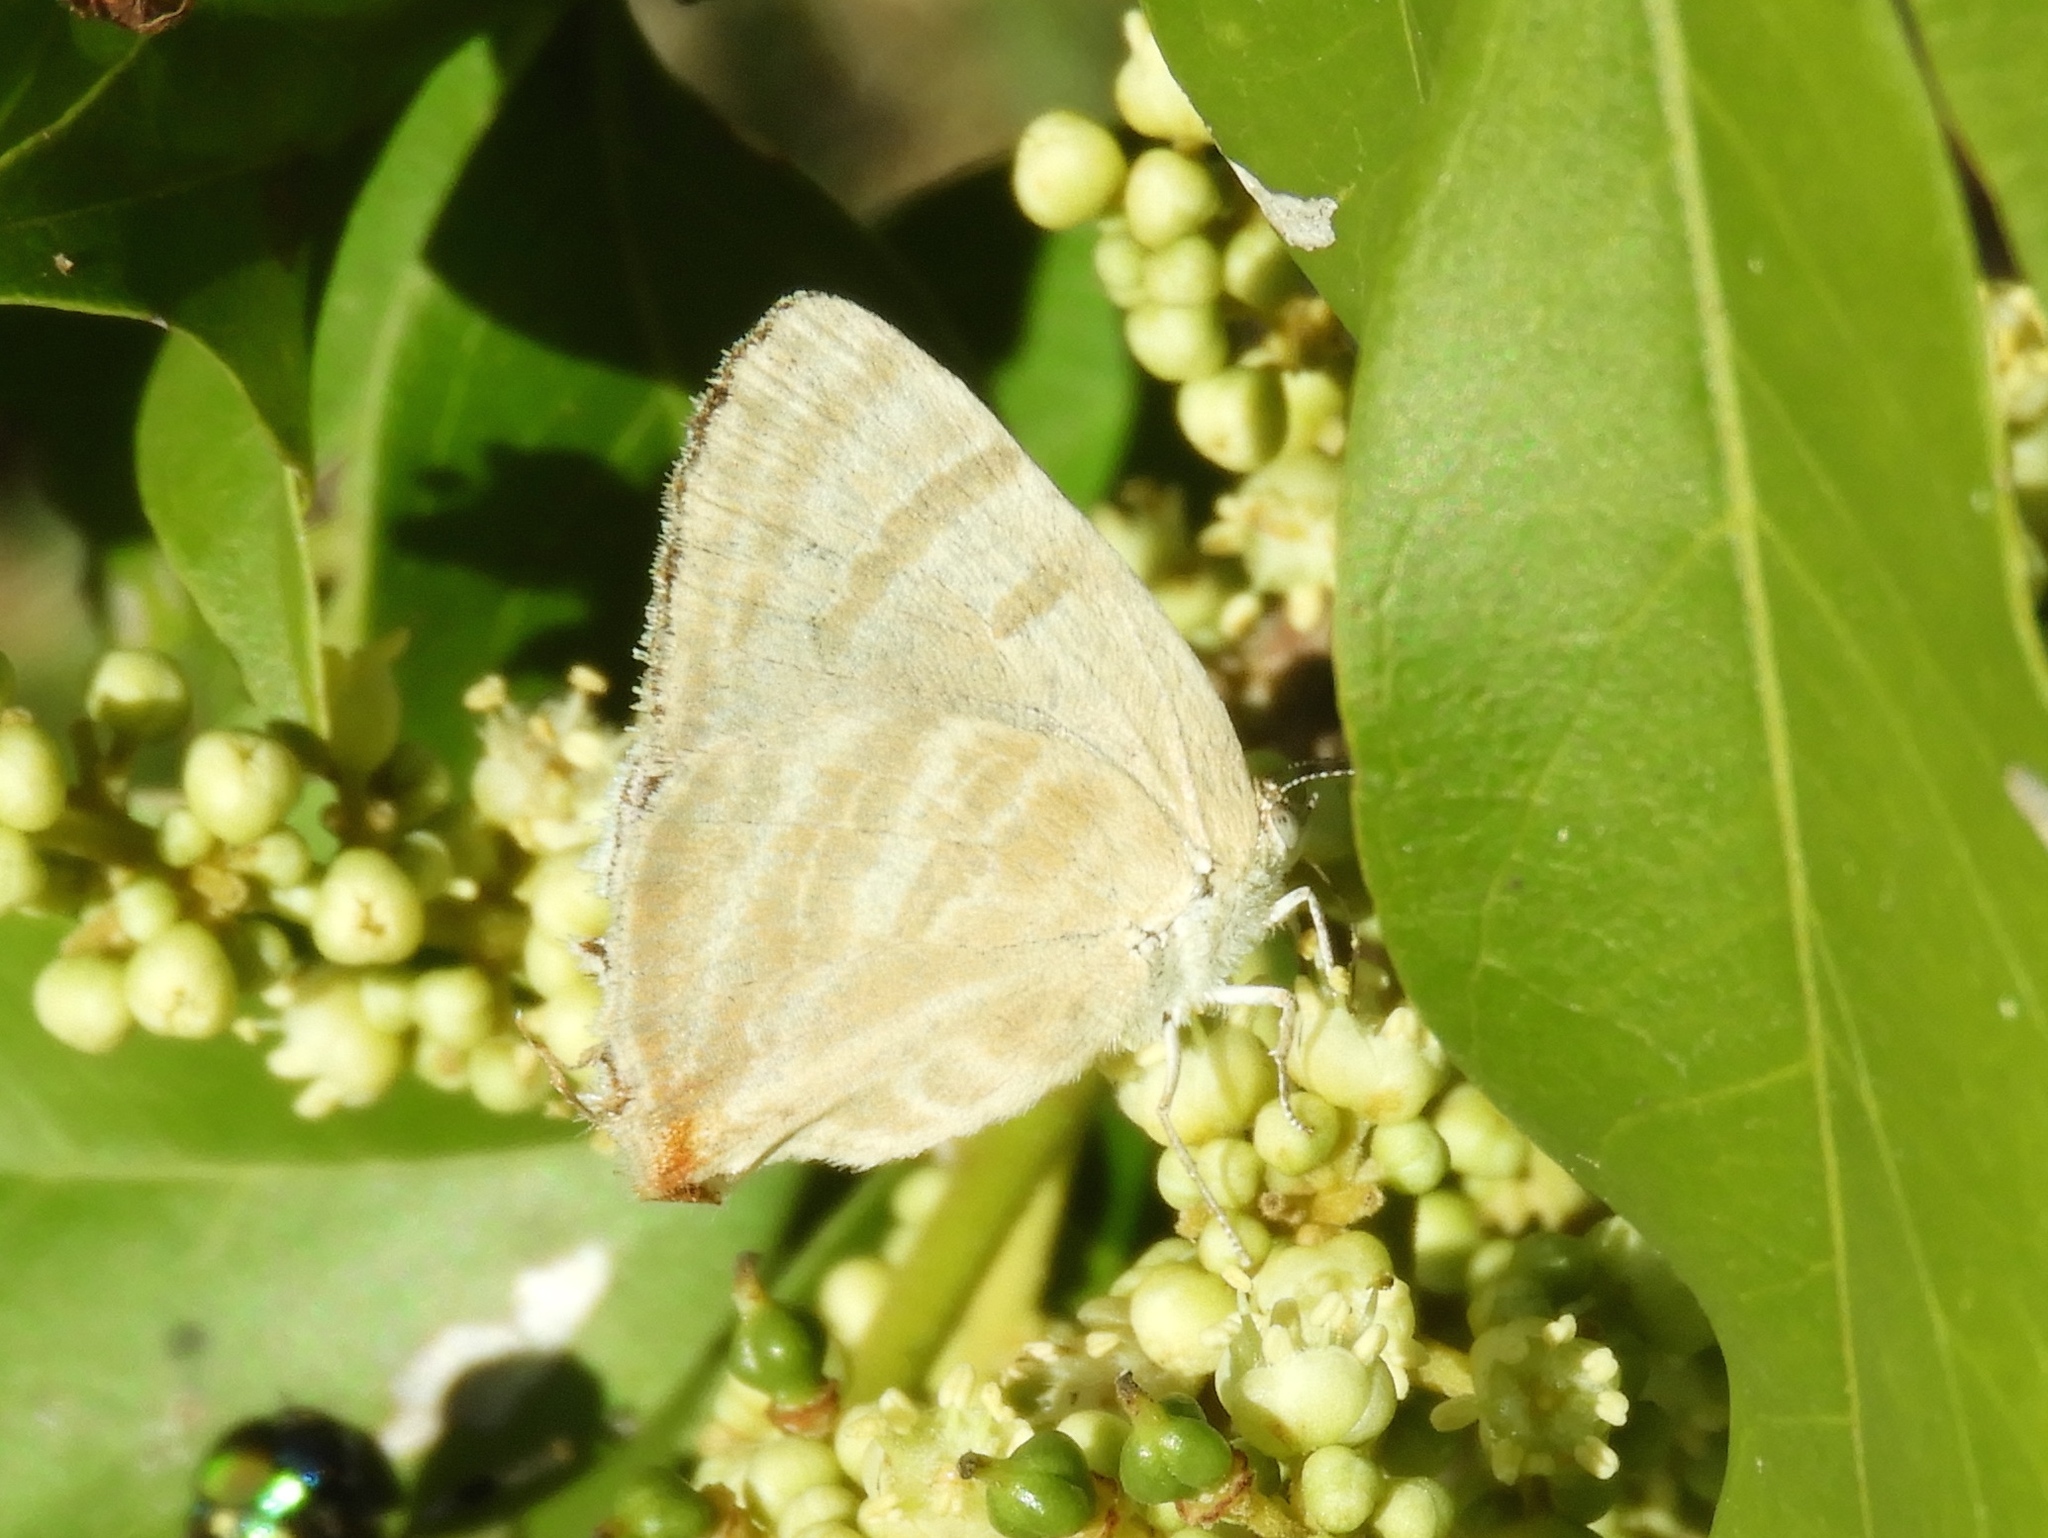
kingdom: Animalia
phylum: Arthropoda
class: Insecta
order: Lepidoptera
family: Lycaenidae
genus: Dolymorpha
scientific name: Dolymorpha jada
